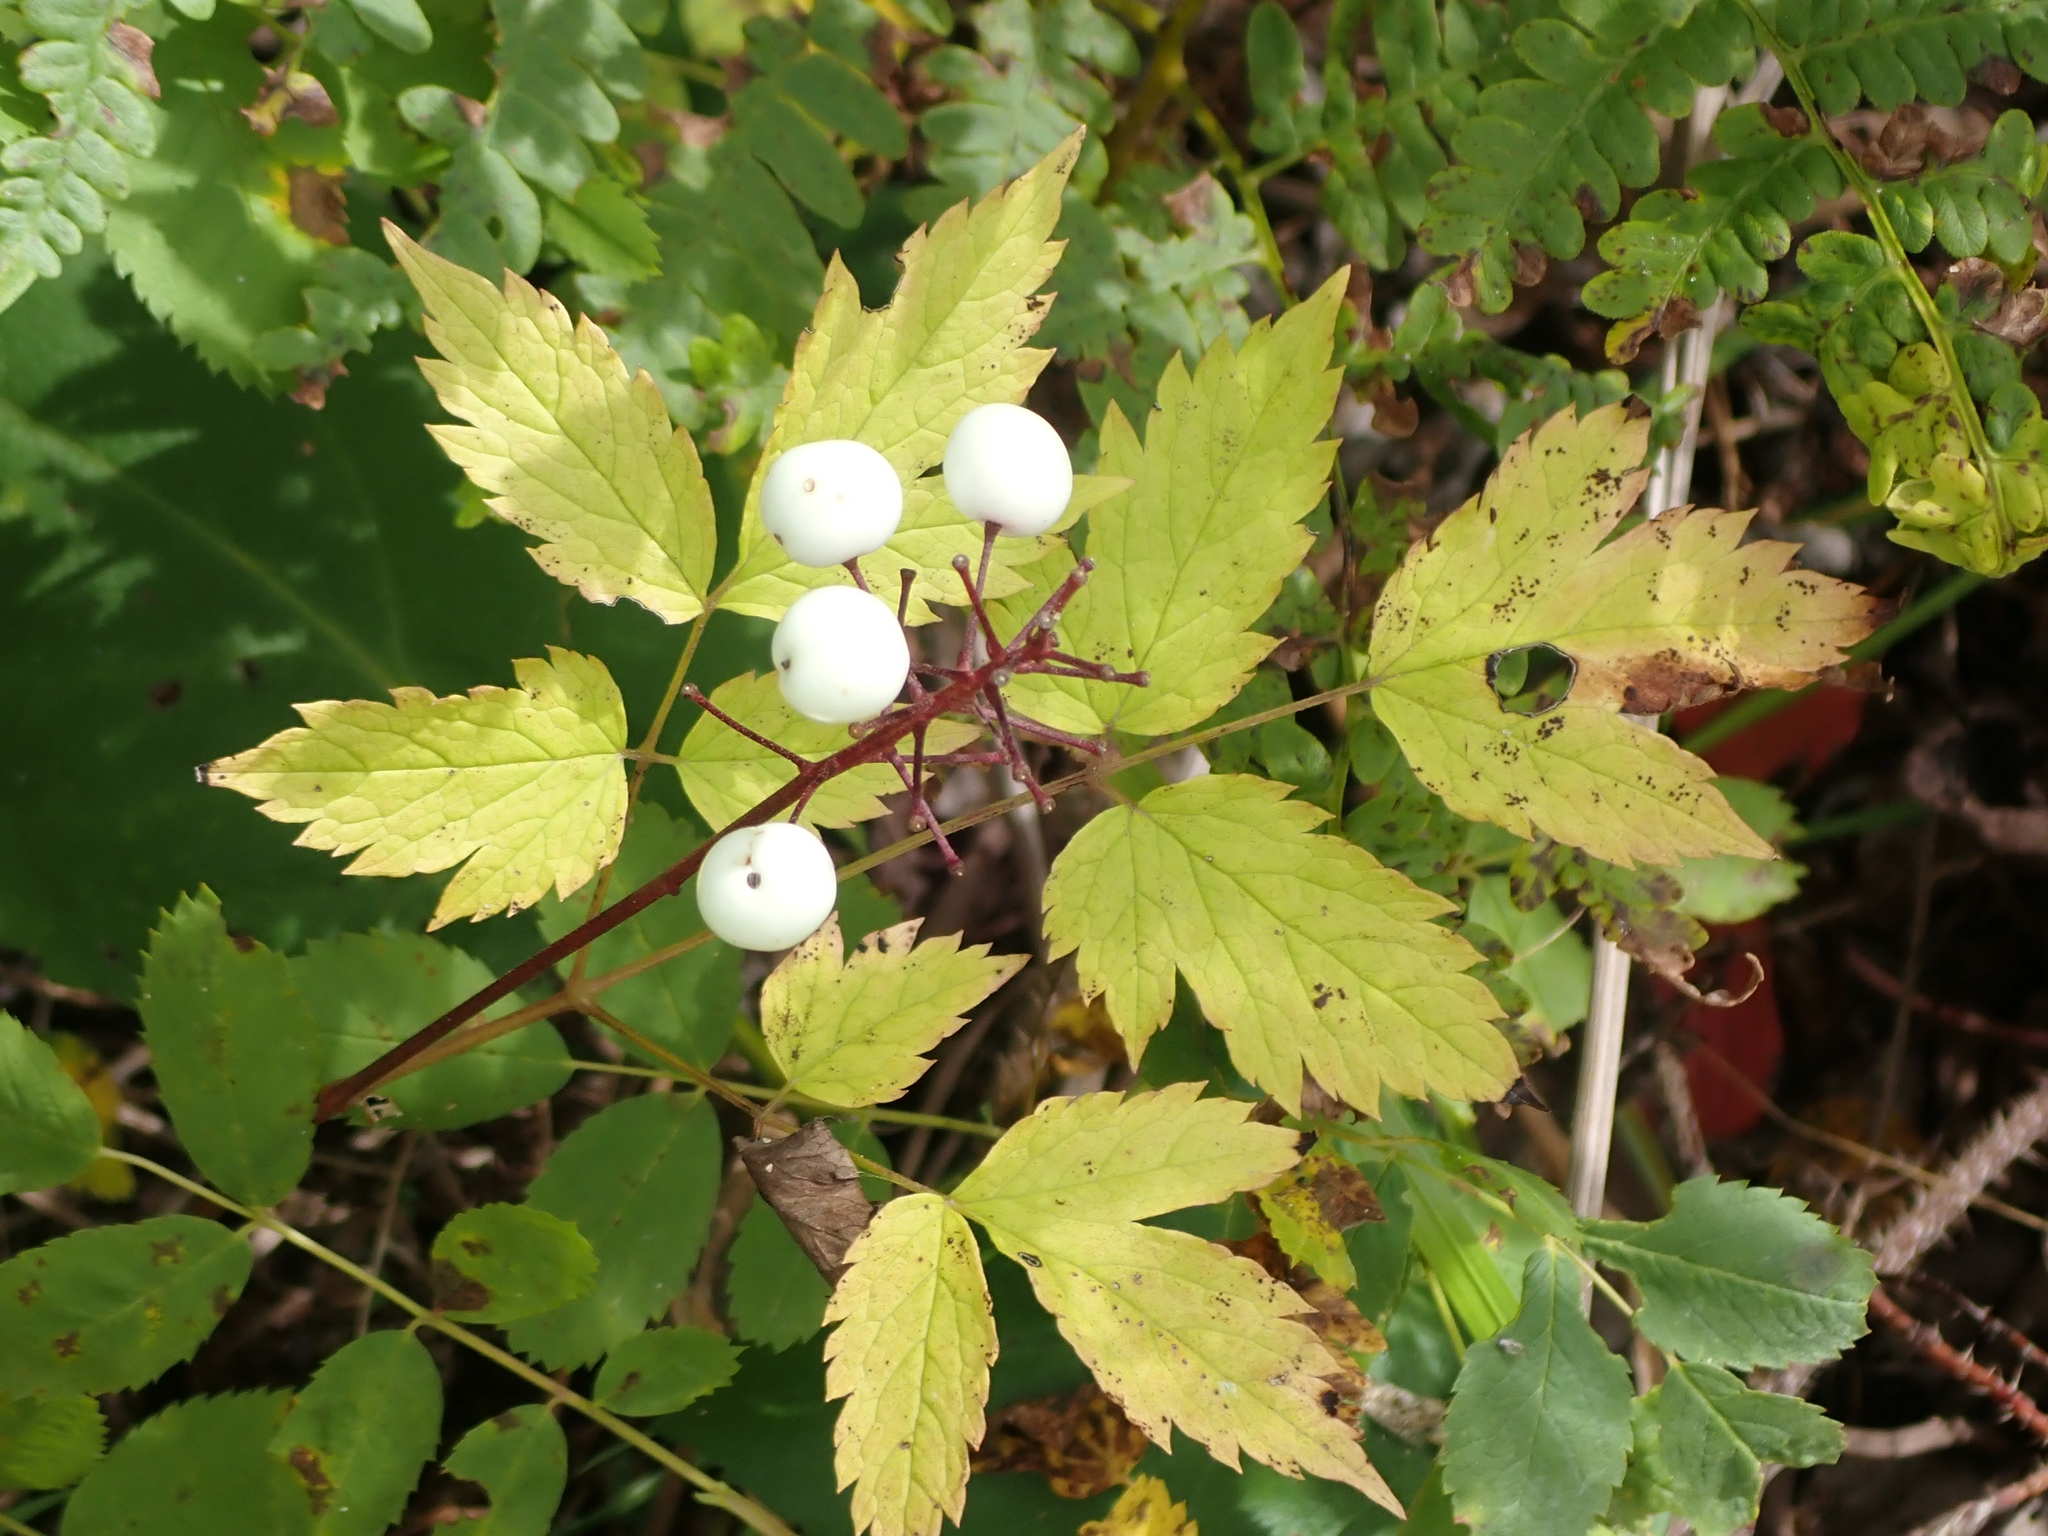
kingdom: Plantae
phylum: Tracheophyta
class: Magnoliopsida
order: Ranunculales
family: Ranunculaceae
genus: Actaea
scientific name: Actaea rubra
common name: Red baneberry
